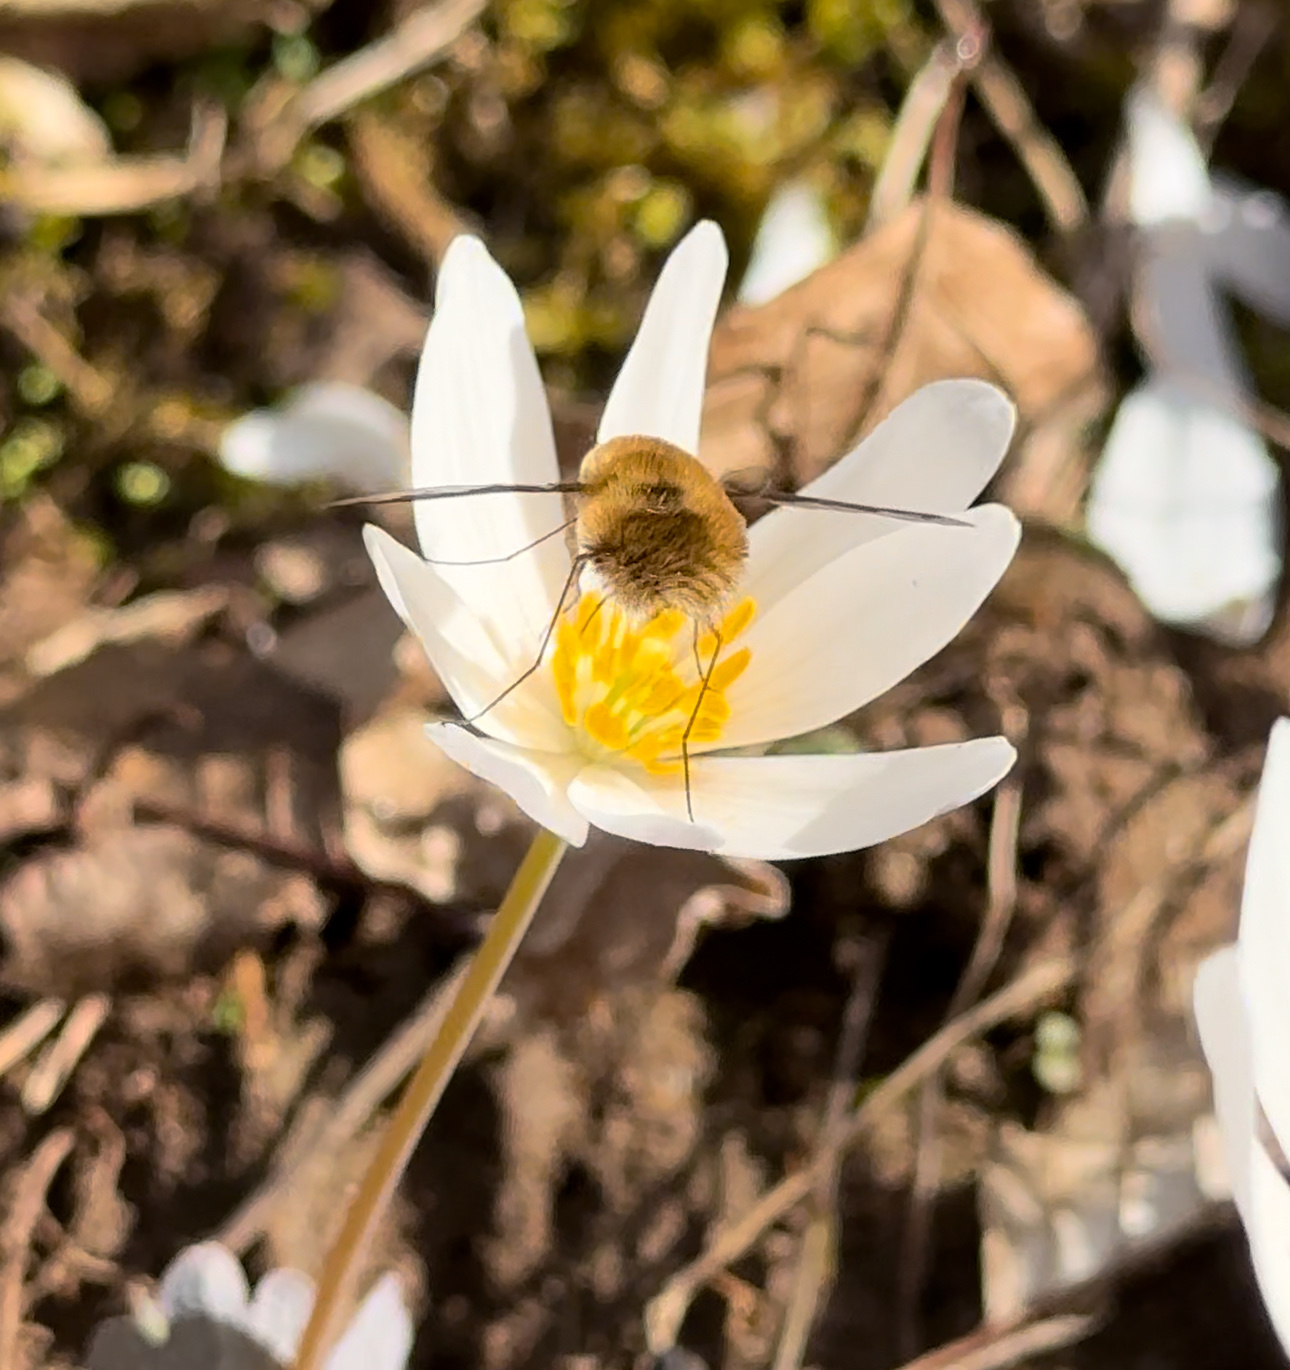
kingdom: Animalia
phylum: Arthropoda
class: Insecta
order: Diptera
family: Bombyliidae
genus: Bombylius
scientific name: Bombylius major
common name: Bee fly
